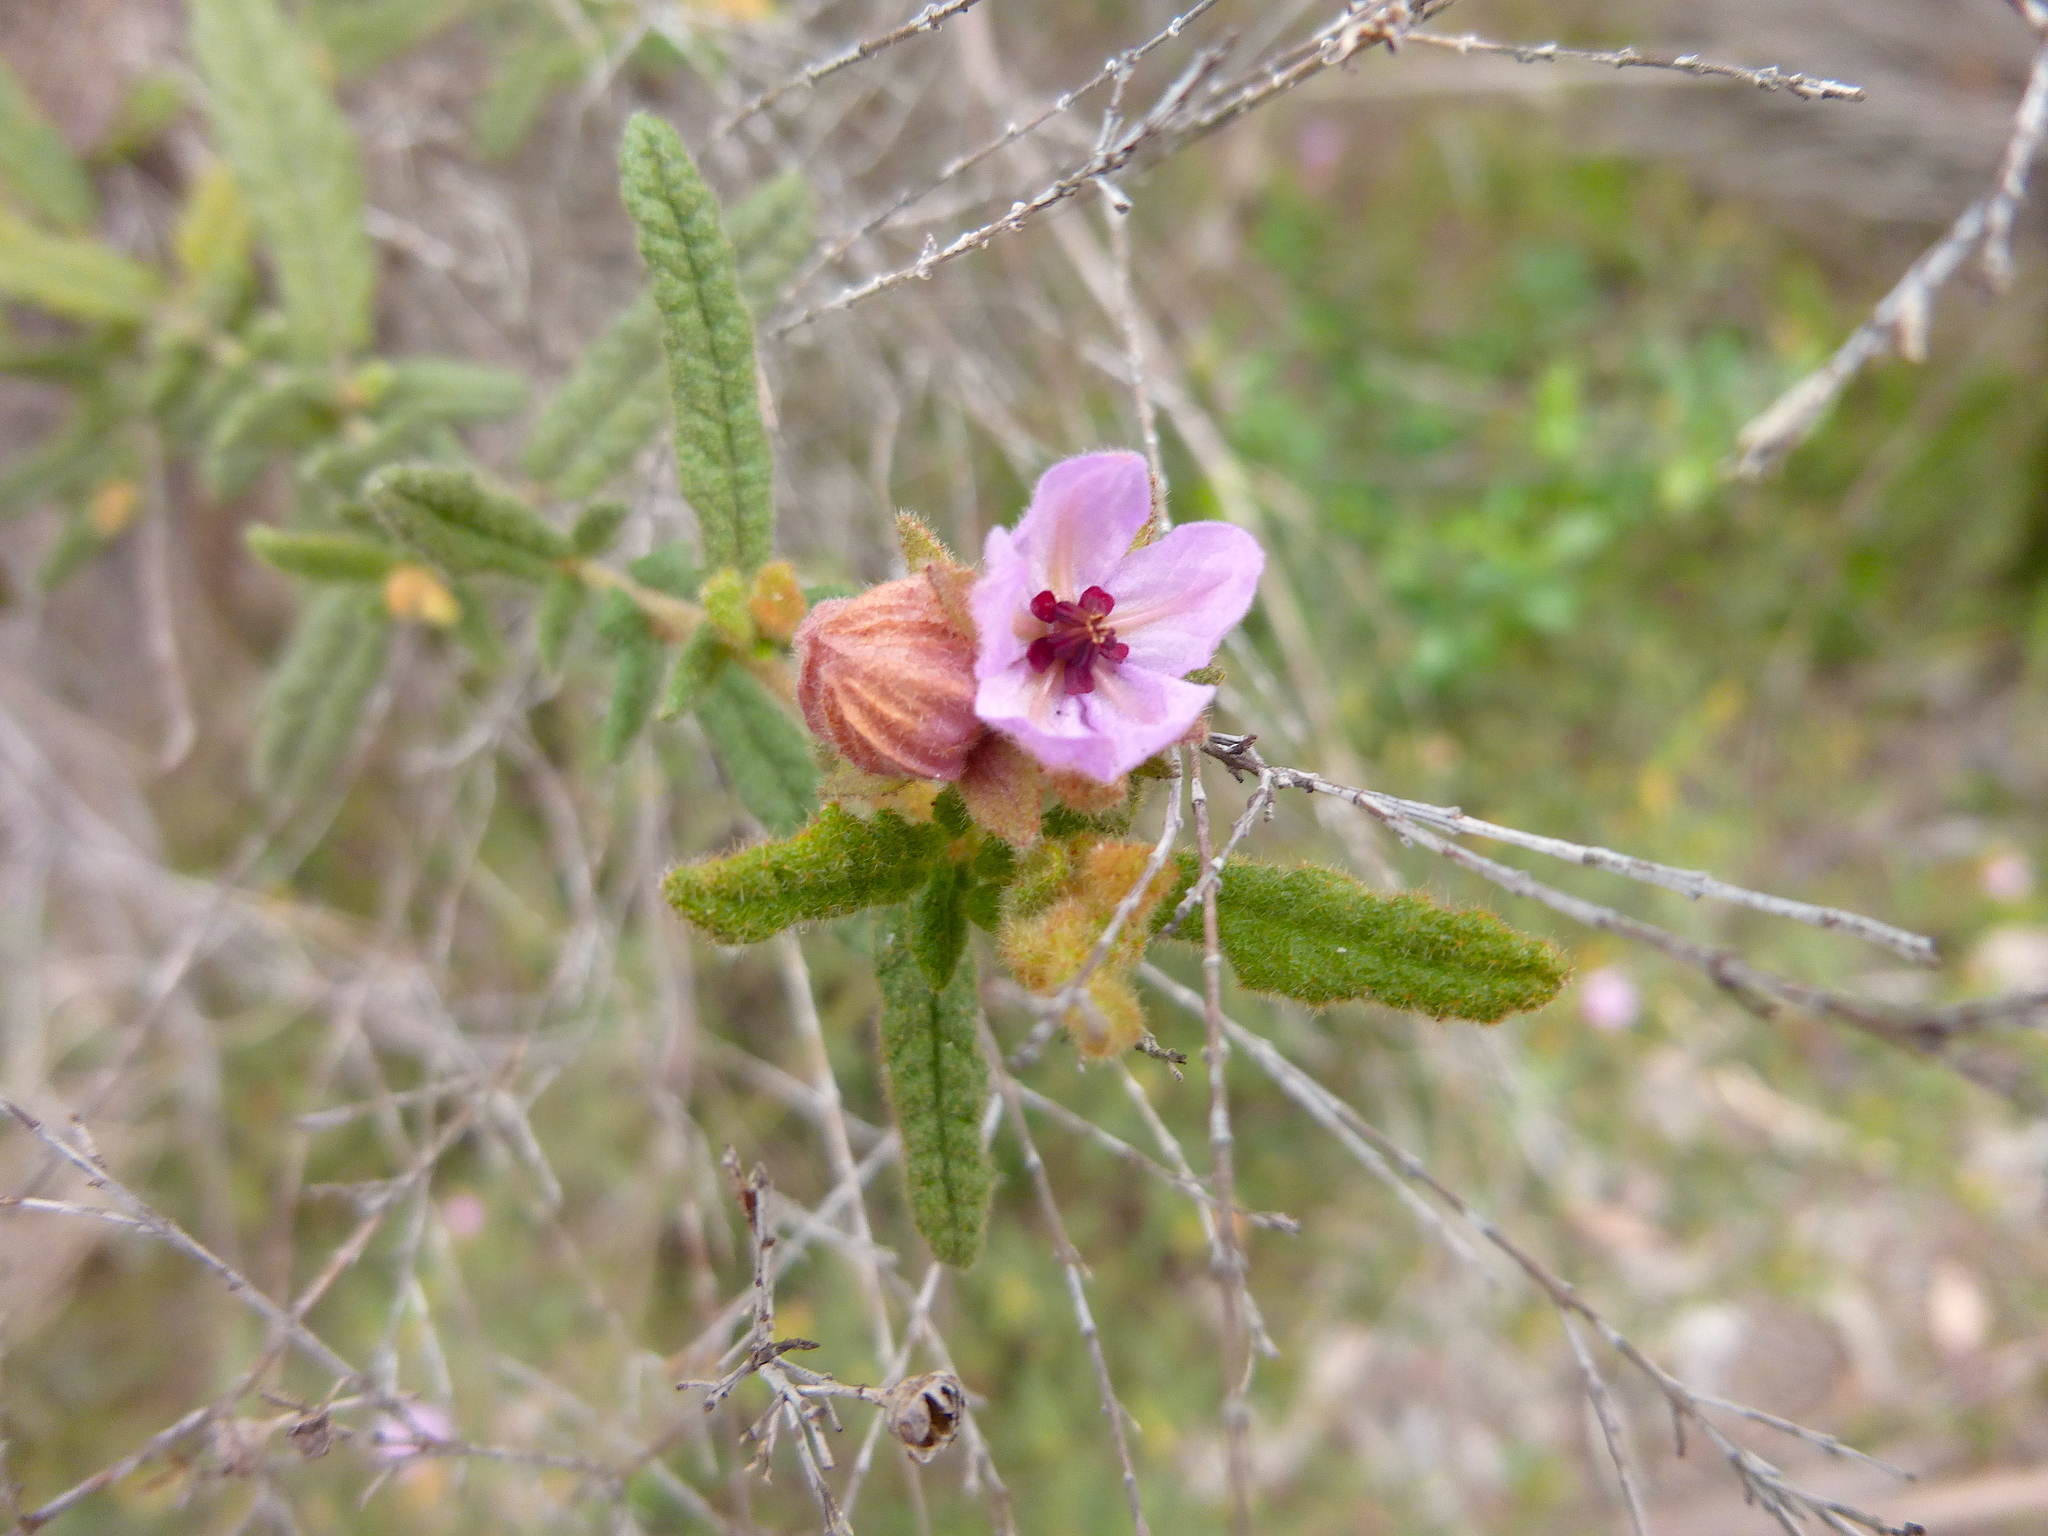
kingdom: Plantae
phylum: Tracheophyta
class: Magnoliopsida
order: Malvales
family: Malvaceae
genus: Thomasia
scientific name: Thomasia petalocalyx
